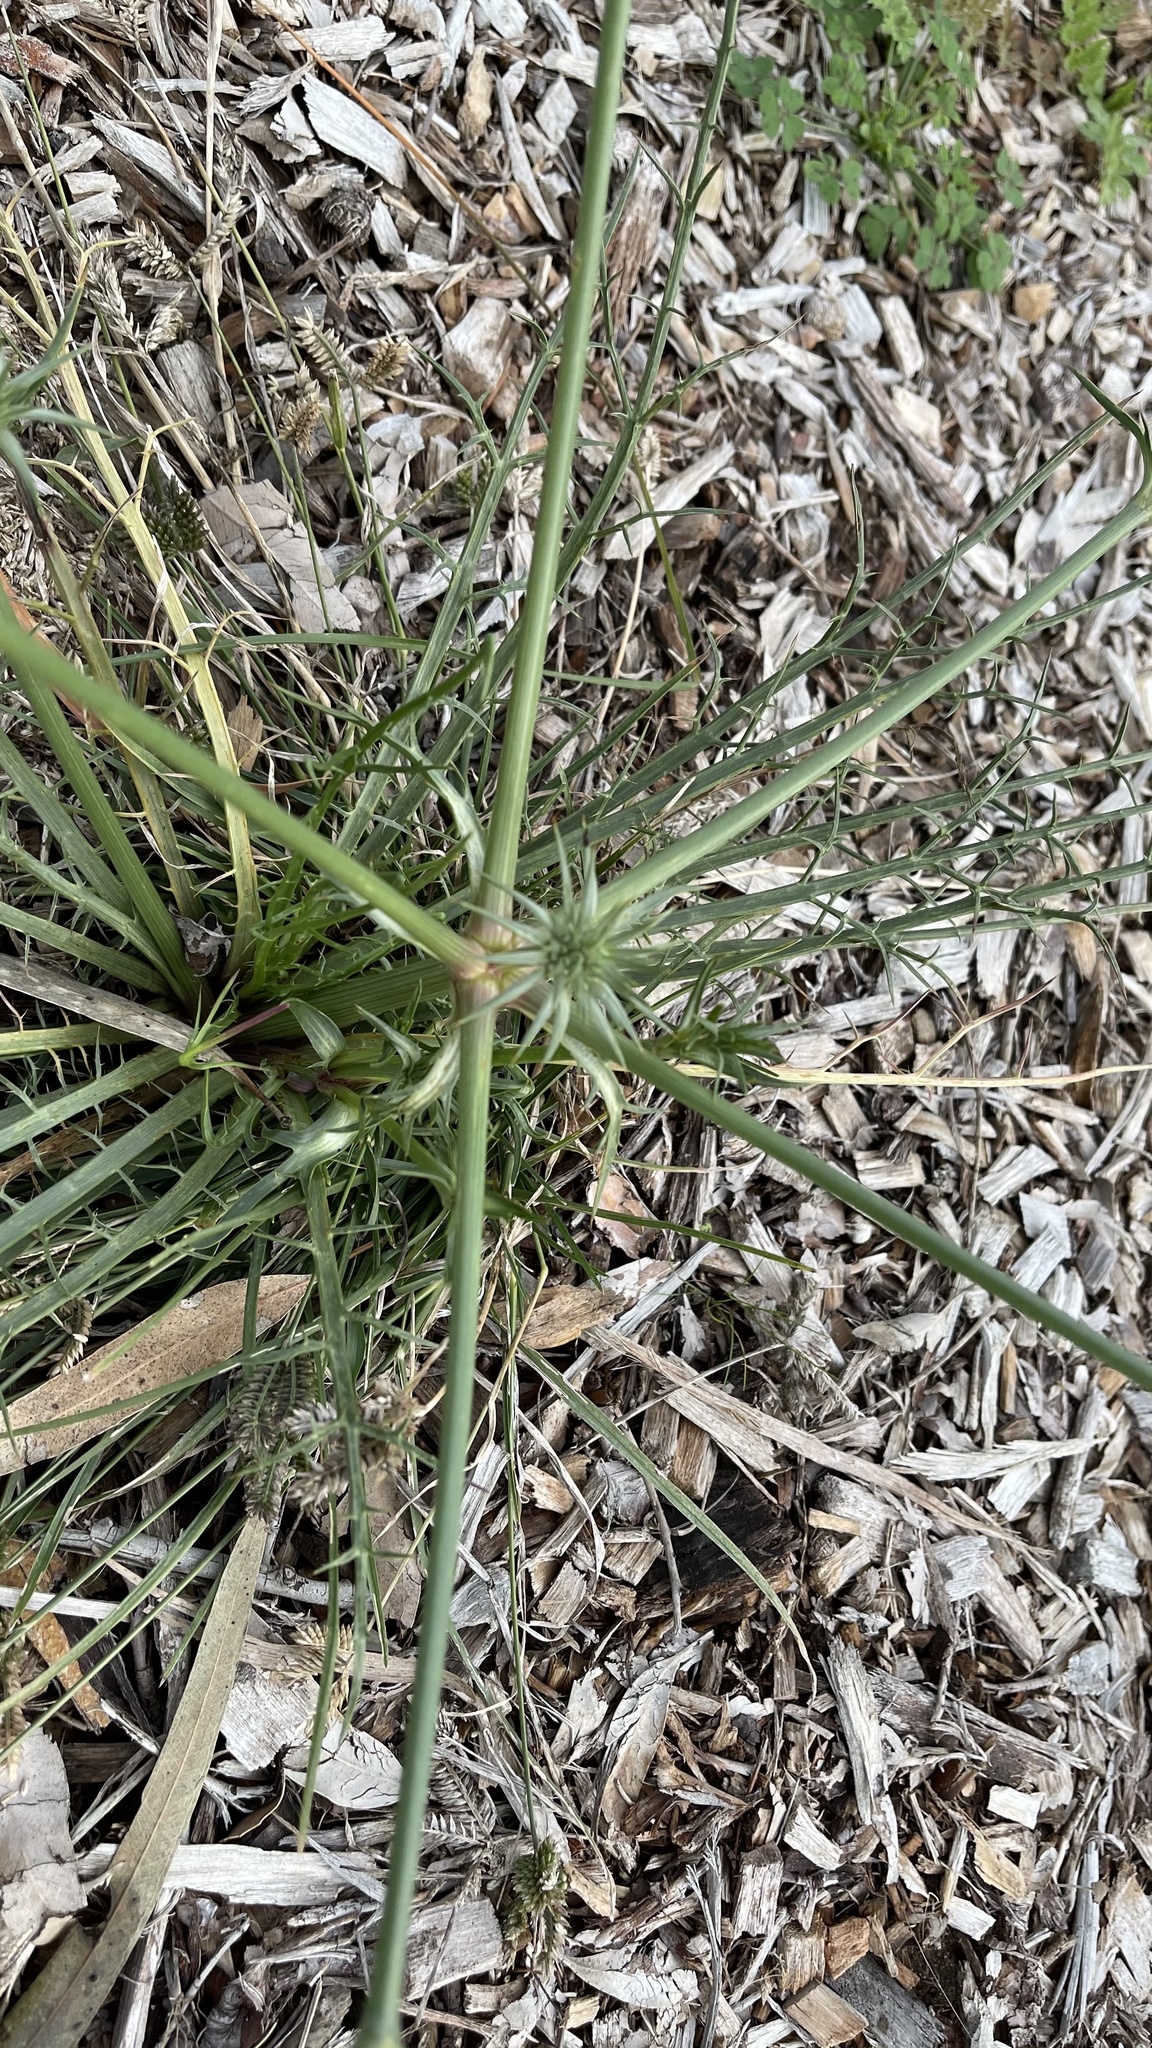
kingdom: Plantae
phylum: Tracheophyta
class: Magnoliopsida
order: Apiales
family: Apiaceae
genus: Eryngium
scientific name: Eryngium ovinum
